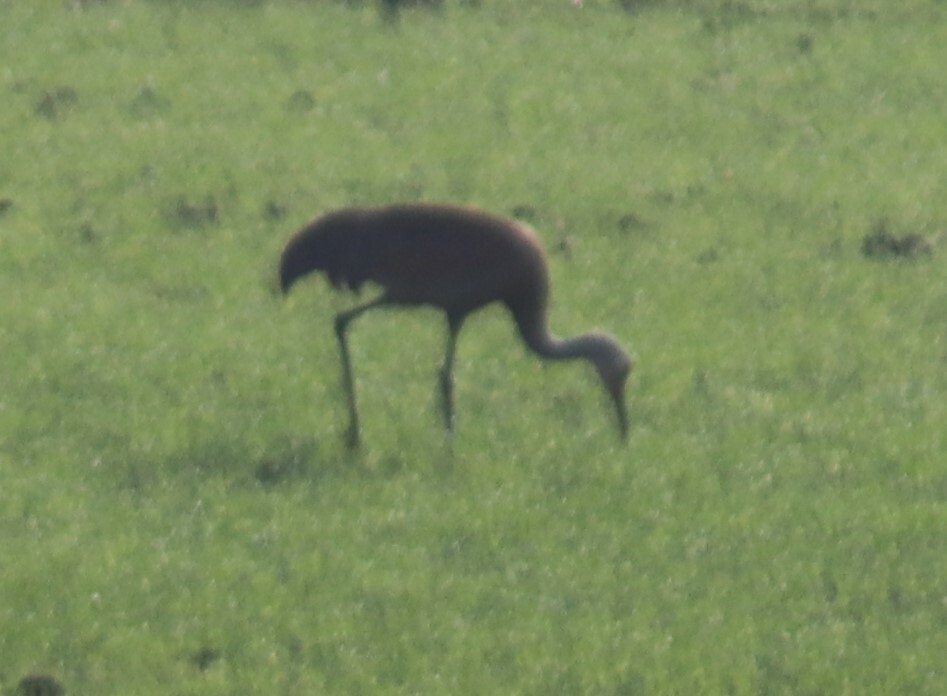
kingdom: Animalia
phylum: Chordata
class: Aves
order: Gruiformes
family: Gruidae
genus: Grus
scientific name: Grus canadensis
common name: Sandhill crane
